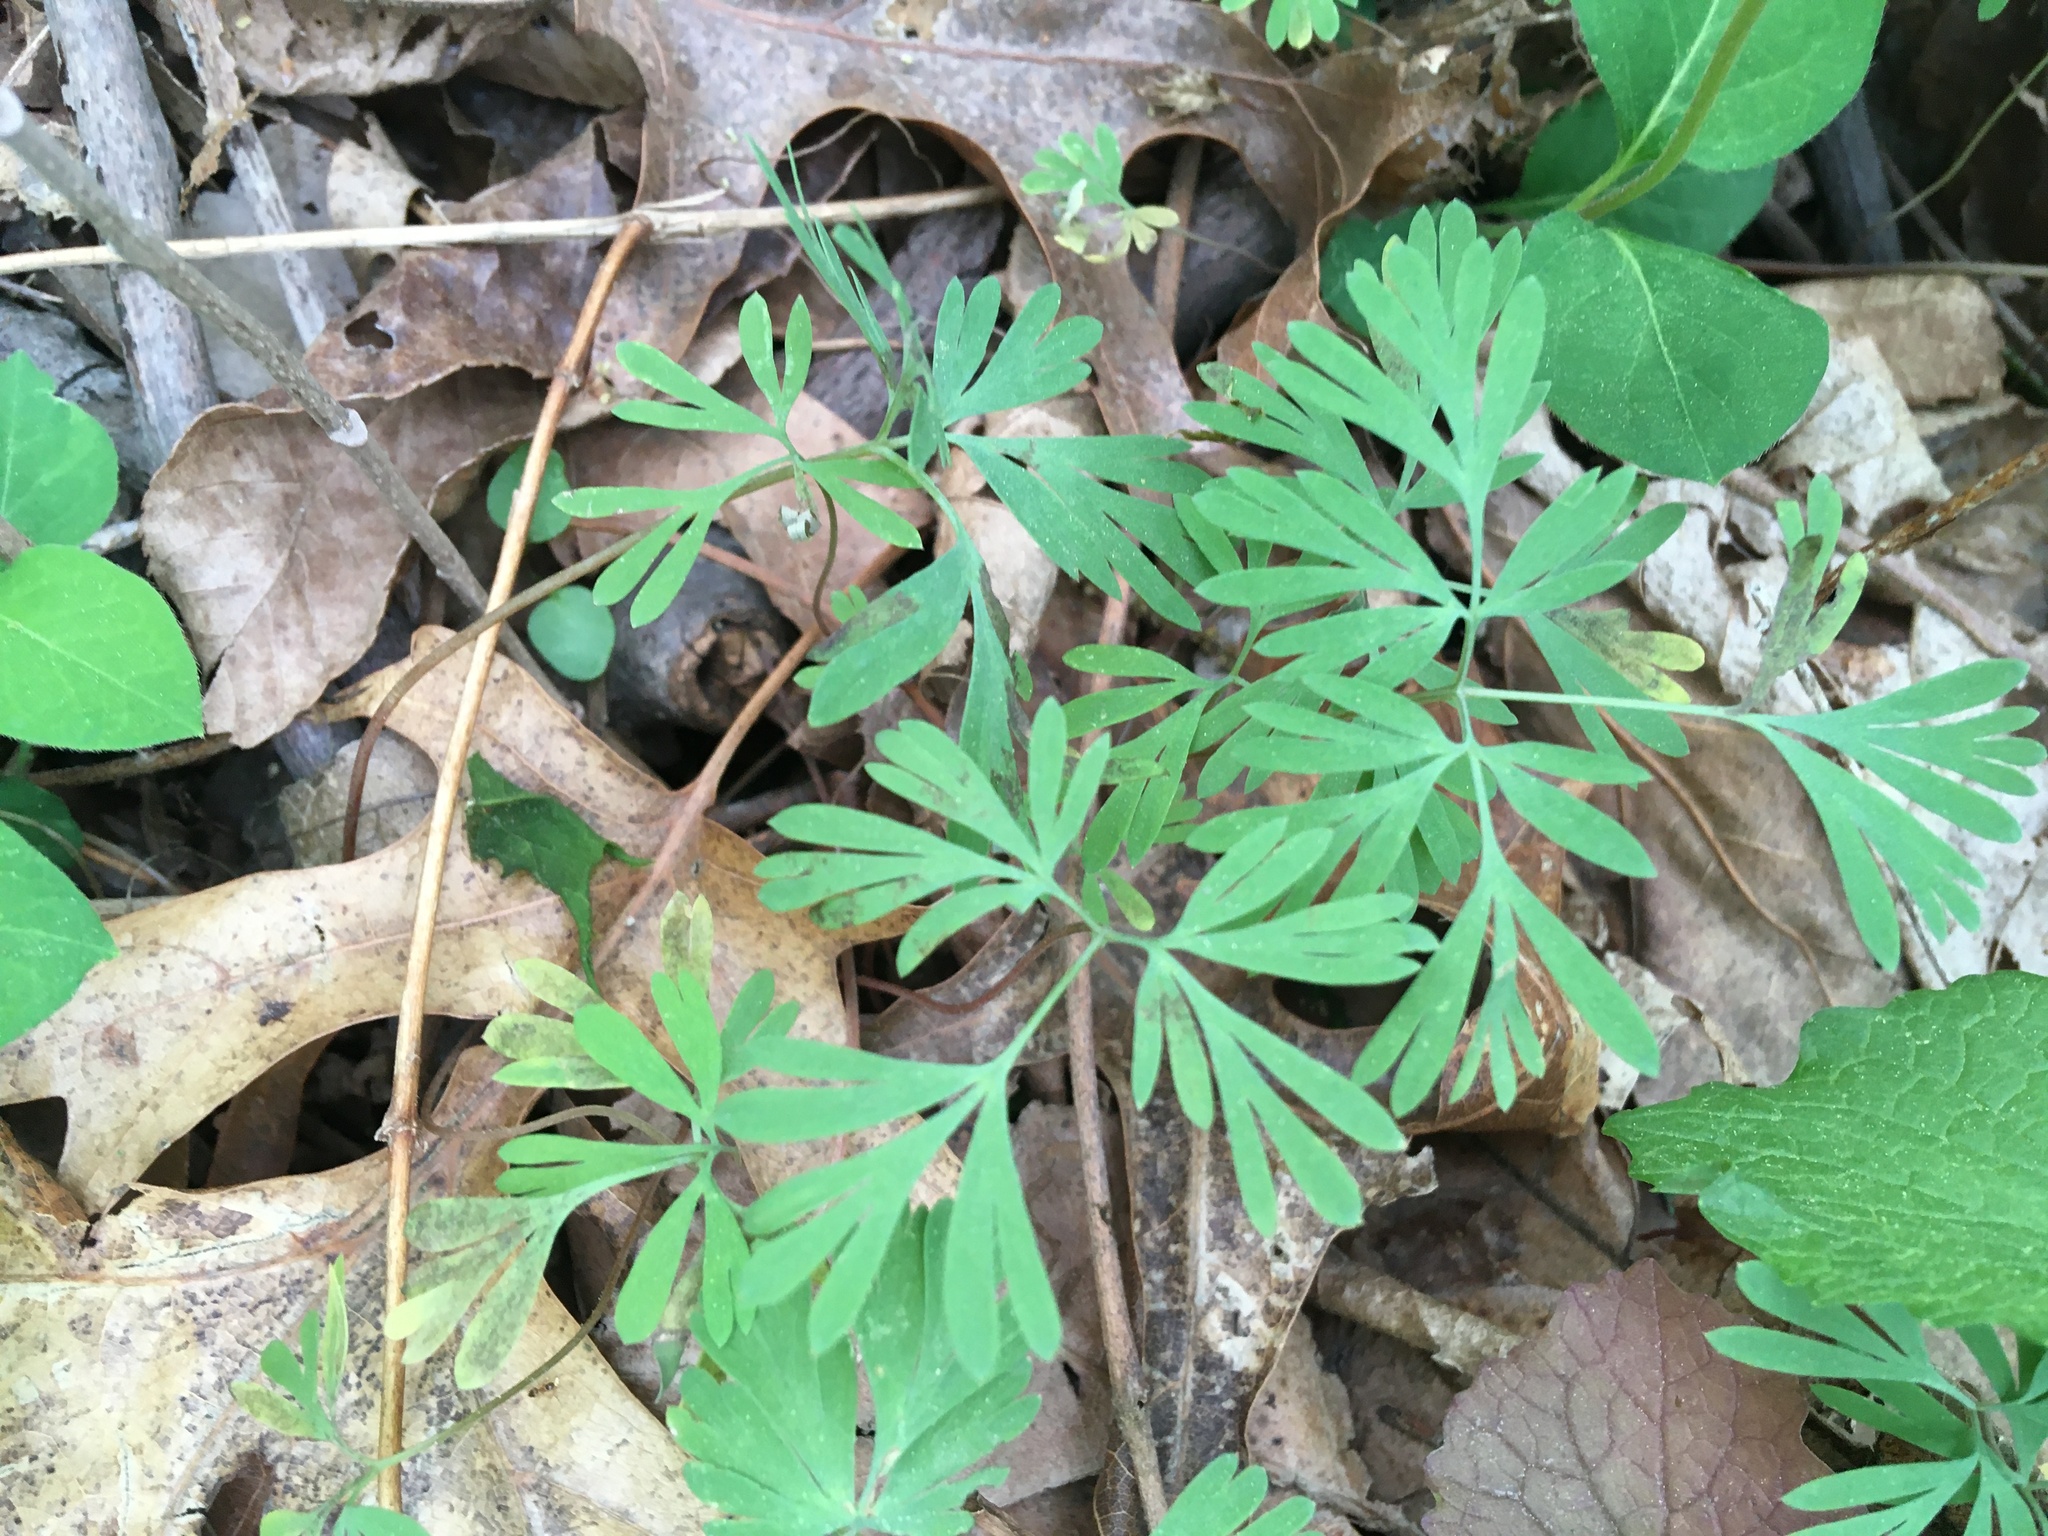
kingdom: Plantae
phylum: Tracheophyta
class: Magnoliopsida
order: Ranunculales
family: Papaveraceae
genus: Dicentra
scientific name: Dicentra cucullaria
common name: Dutchman's breeches
